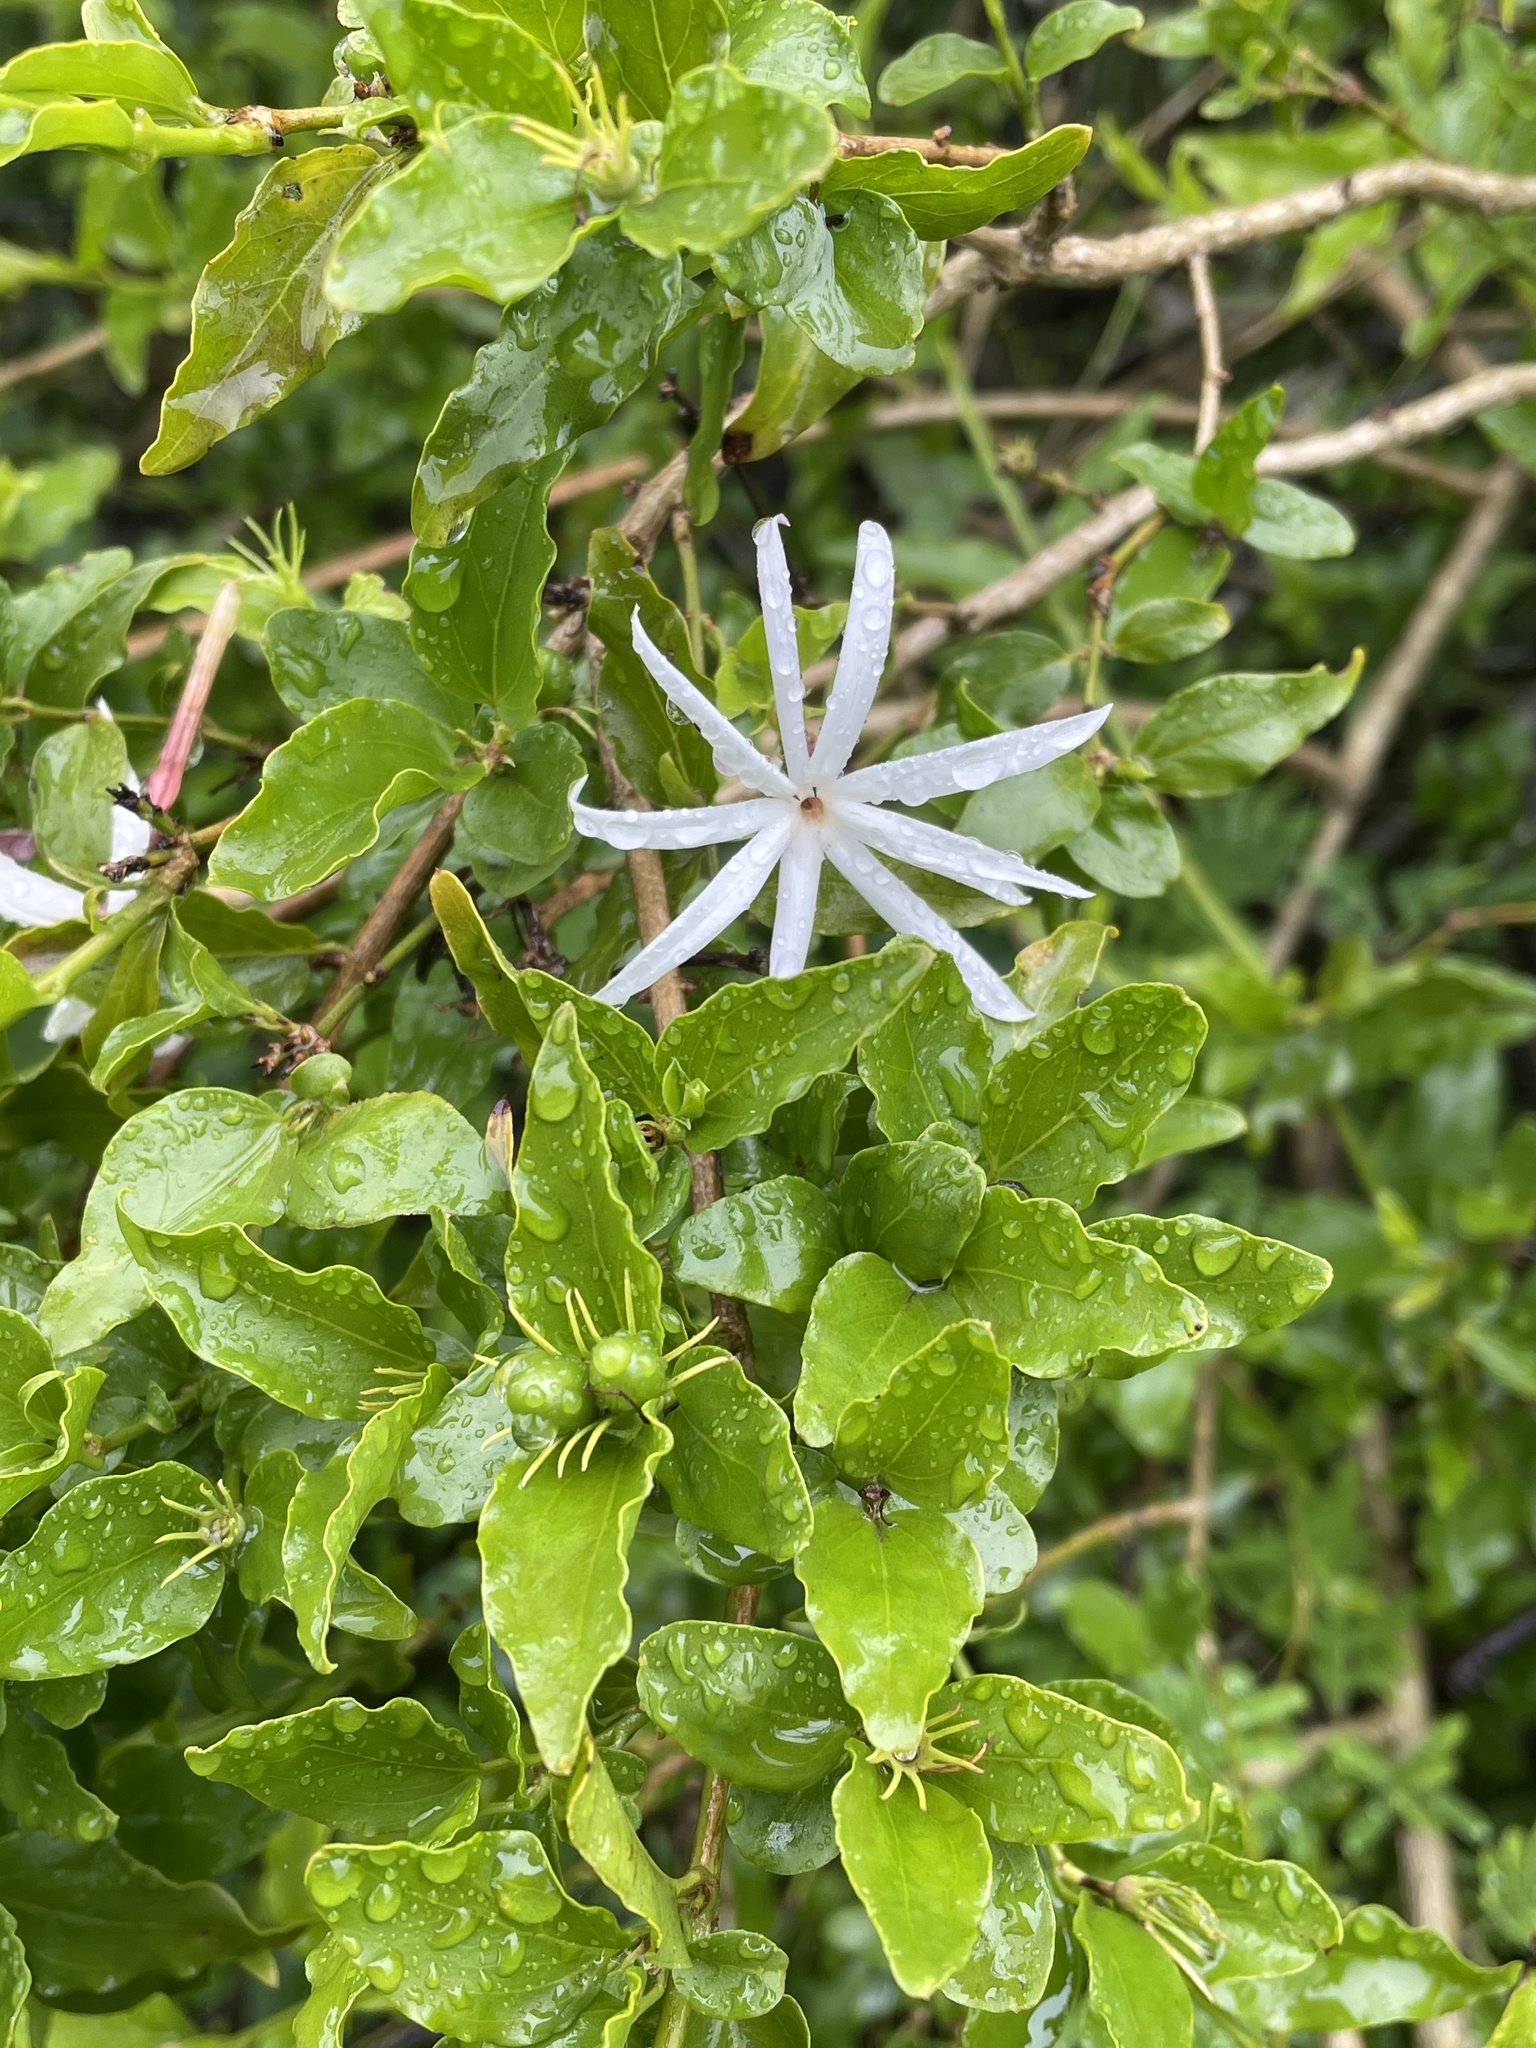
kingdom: Plantae
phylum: Tracheophyta
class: Magnoliopsida
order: Lamiales
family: Oleaceae
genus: Jasminum
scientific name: Jasminum multipartitum
